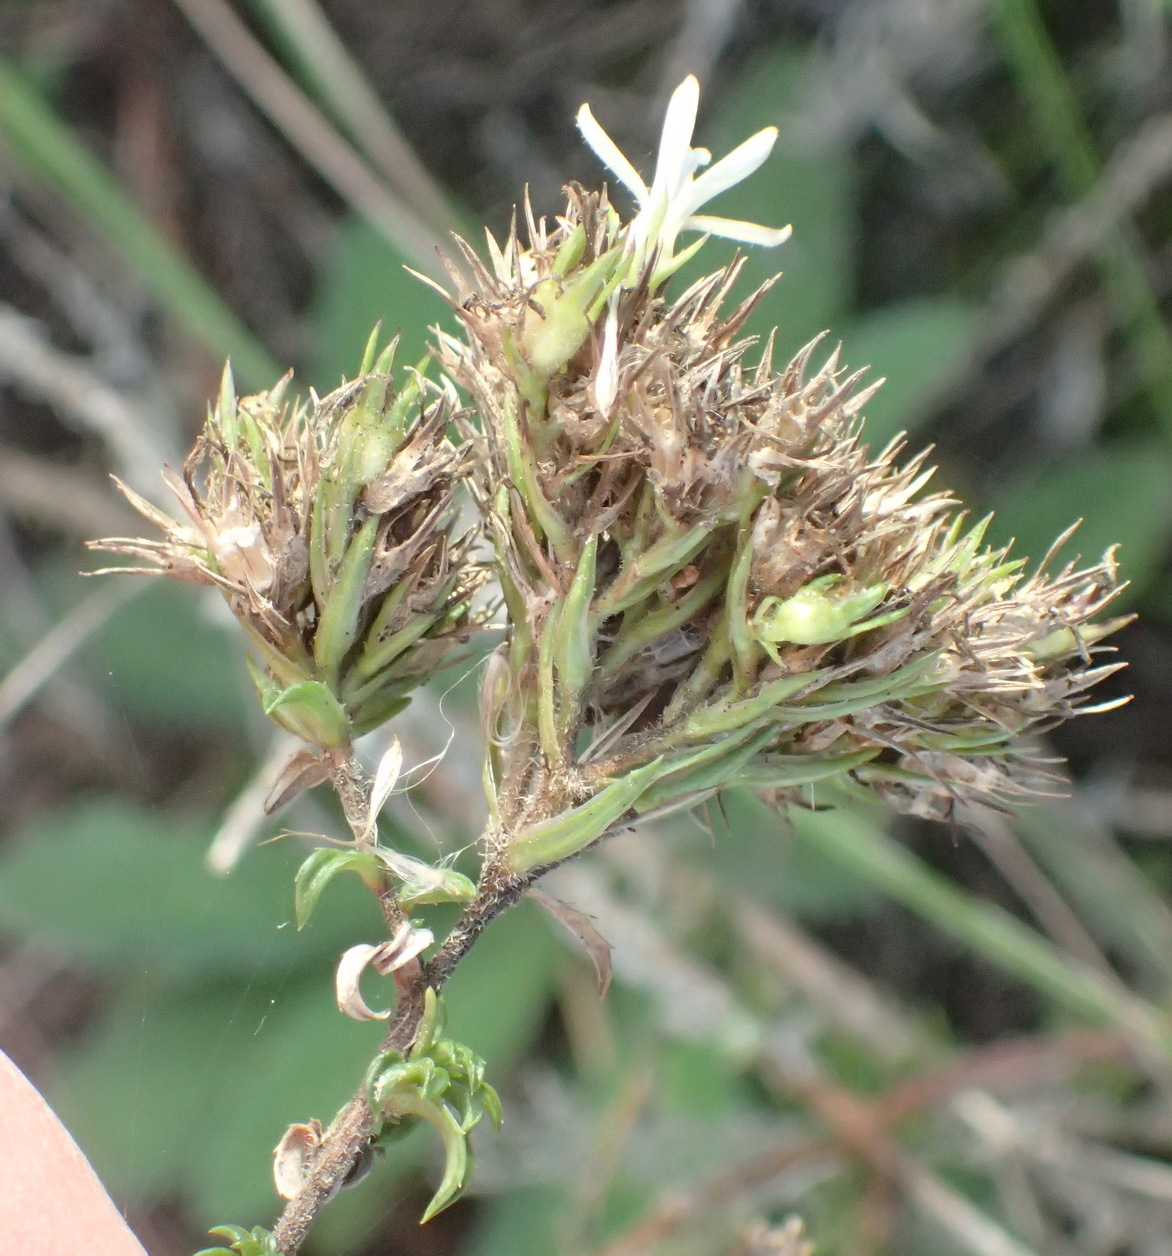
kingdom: Plantae
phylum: Tracheophyta
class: Magnoliopsida
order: Asterales
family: Campanulaceae
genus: Wahlenbergia
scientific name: Wahlenbergia desmantha
